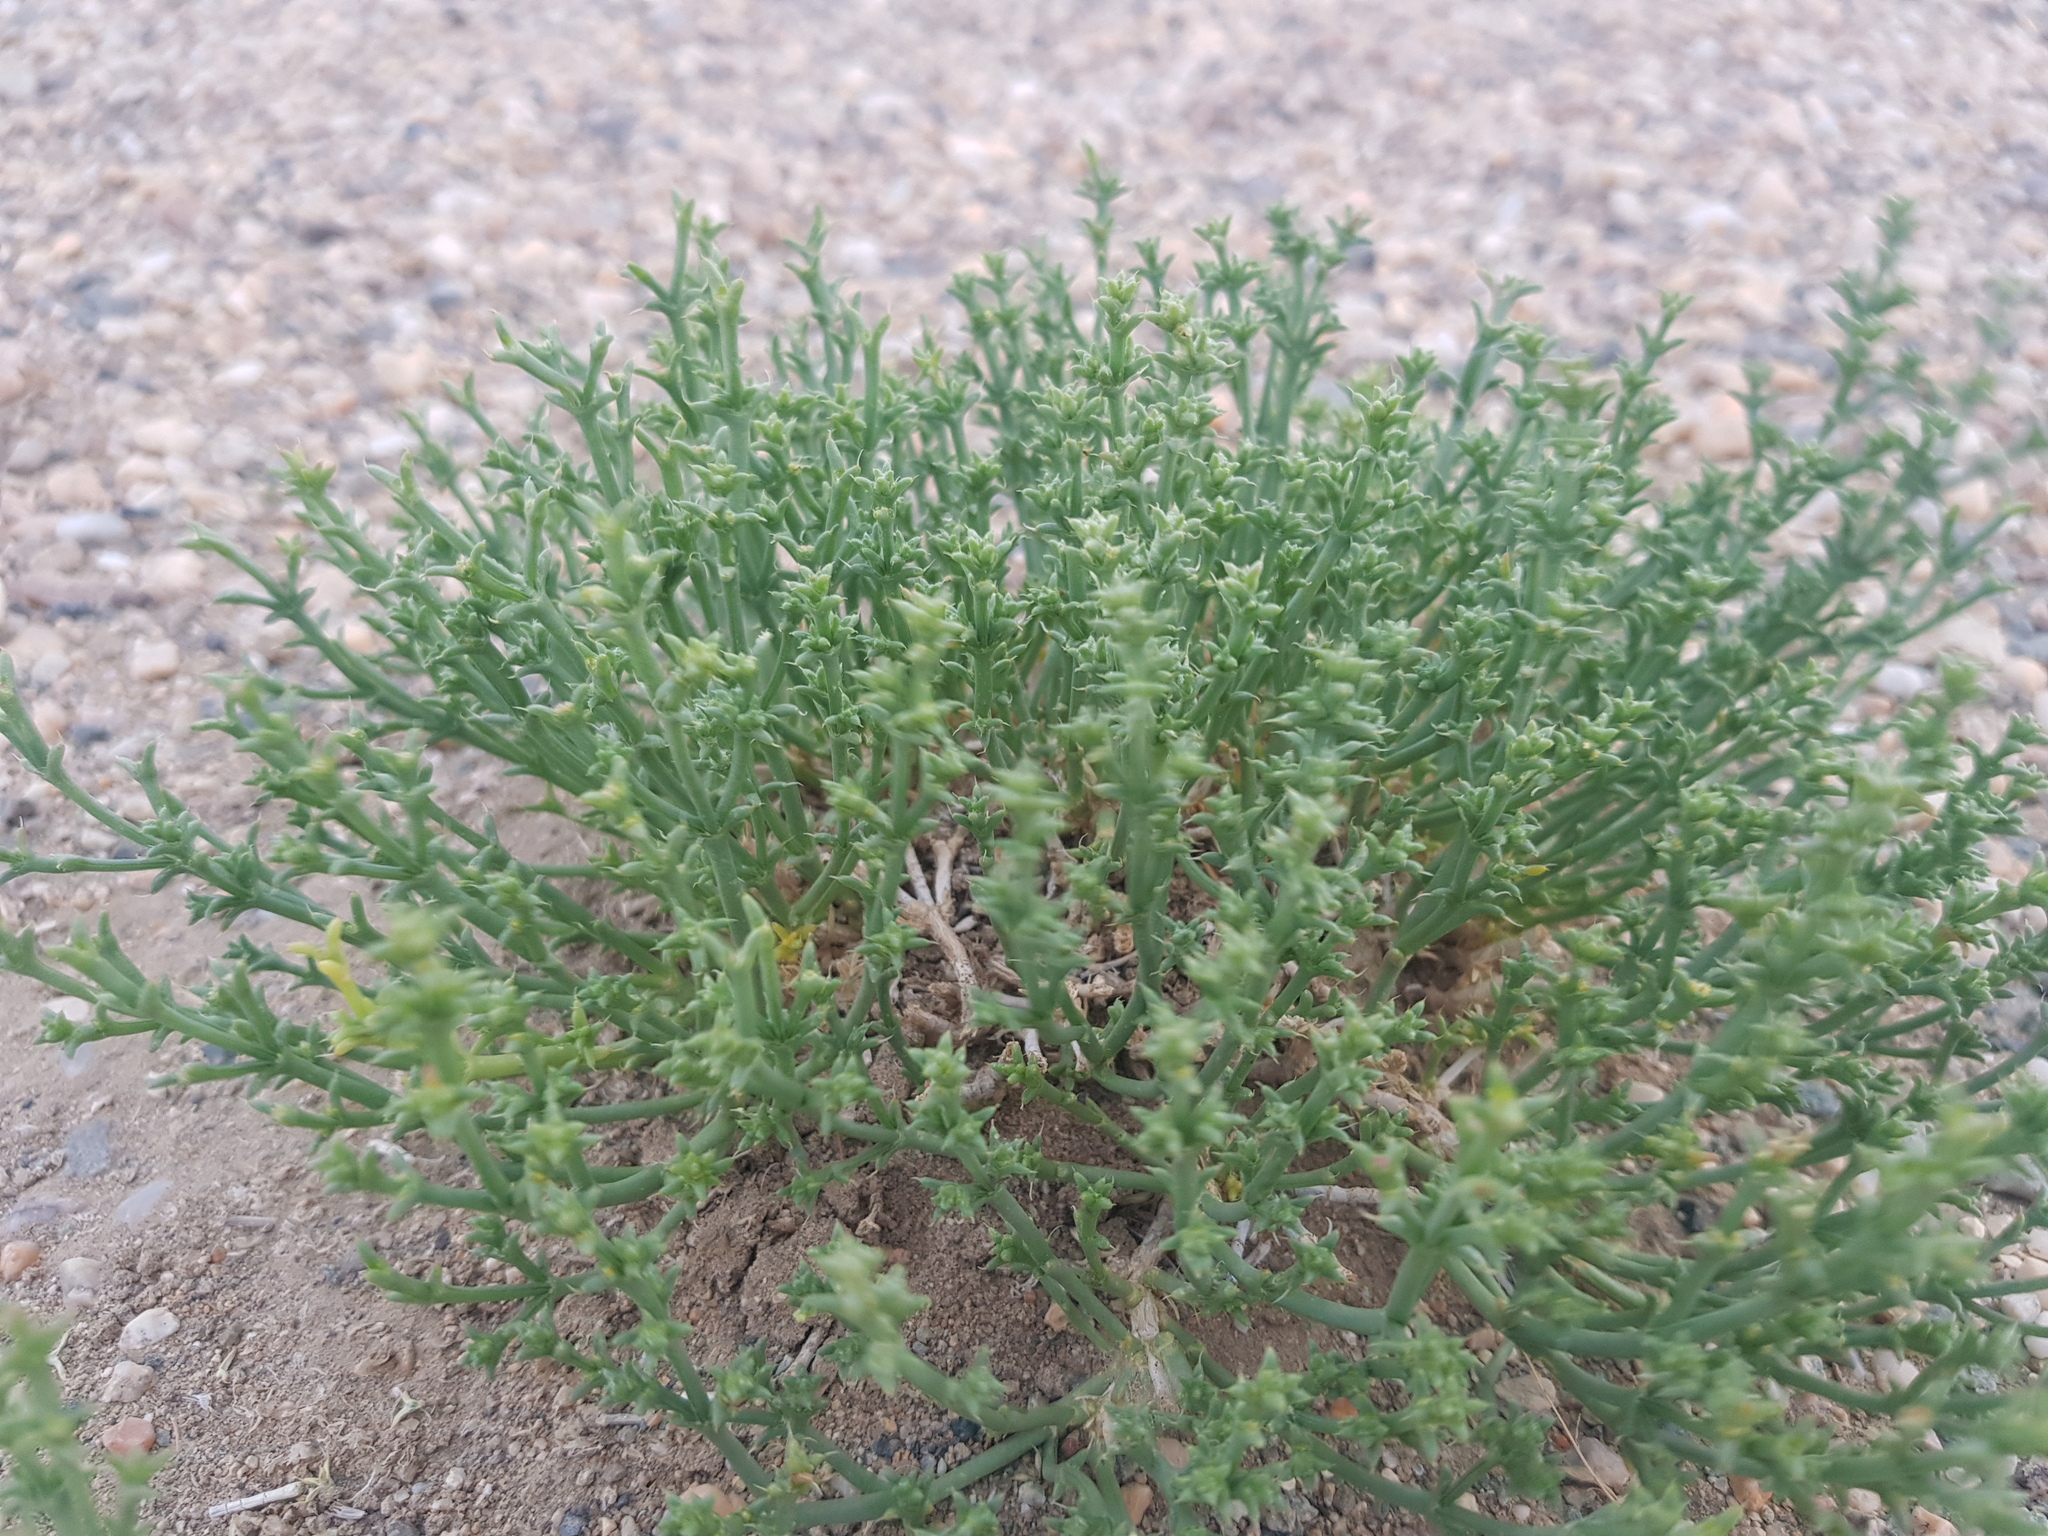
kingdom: Plantae
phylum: Tracheophyta
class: Magnoliopsida
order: Caryophyllales
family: Amaranthaceae
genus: Anabasis
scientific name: Anabasis brevifolia
